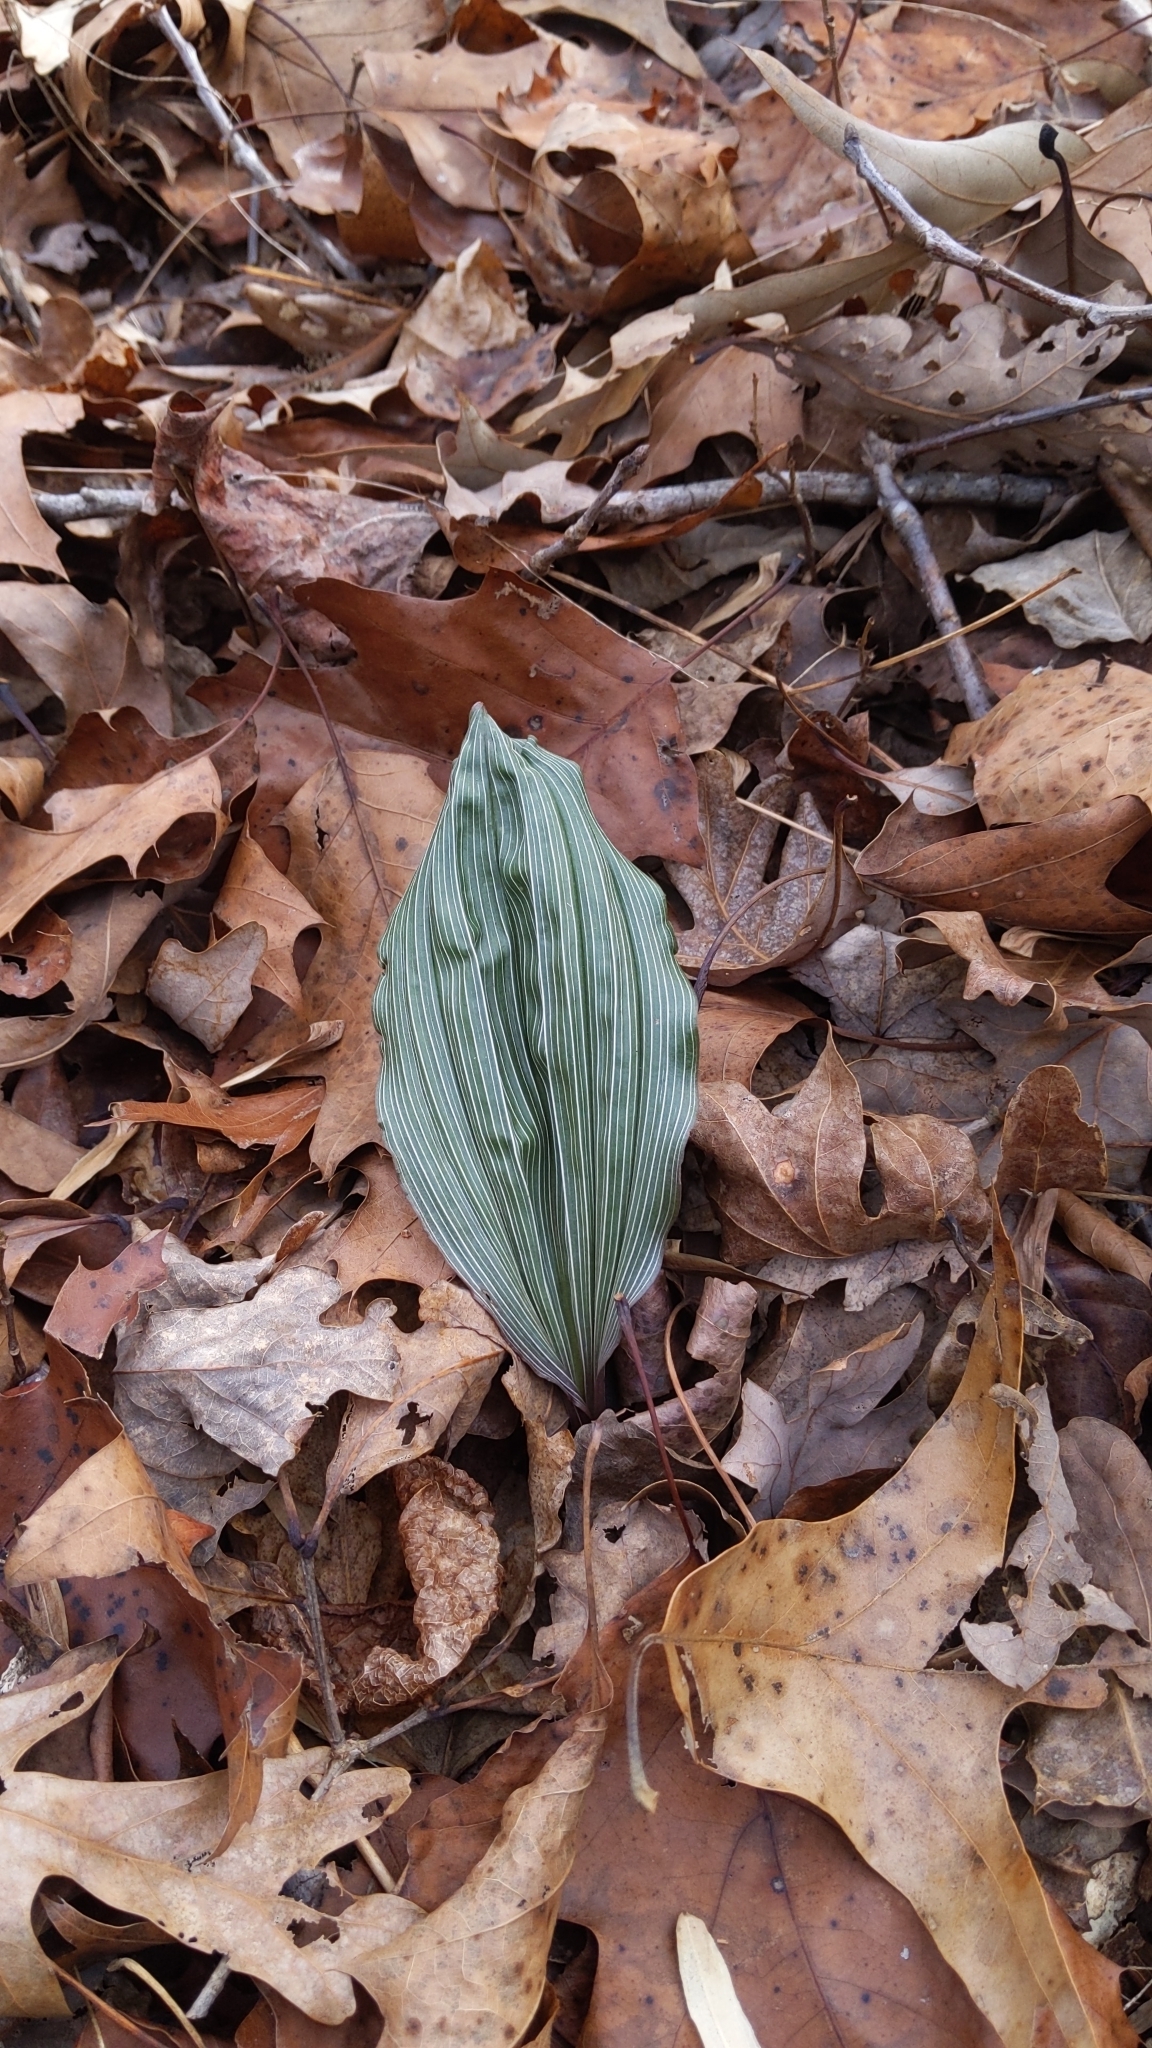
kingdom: Plantae
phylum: Tracheophyta
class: Liliopsida
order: Asparagales
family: Orchidaceae
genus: Aplectrum
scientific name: Aplectrum hyemale
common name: Adam-and-eve
